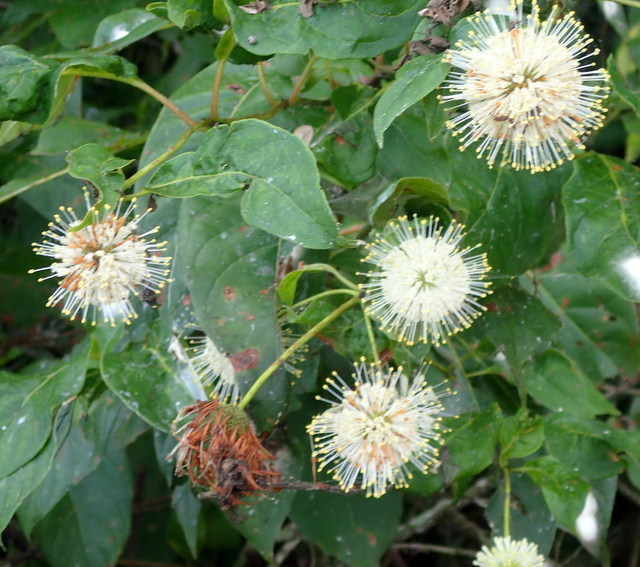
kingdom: Plantae
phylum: Tracheophyta
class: Magnoliopsida
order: Gentianales
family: Rubiaceae
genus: Cephalanthus
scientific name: Cephalanthus occidentalis
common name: Button-willow
